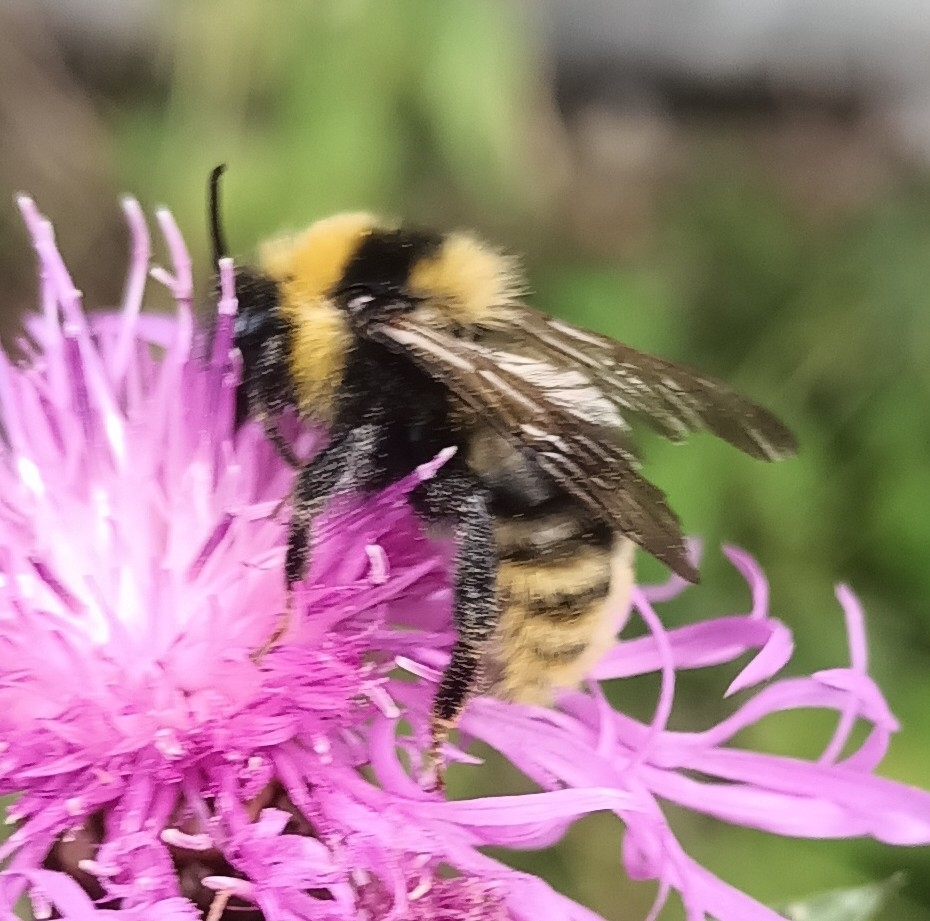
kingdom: Animalia
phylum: Arthropoda
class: Insecta
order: Hymenoptera
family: Apidae
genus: Bombus
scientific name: Bombus campestris
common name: Field cuckoo-bee
